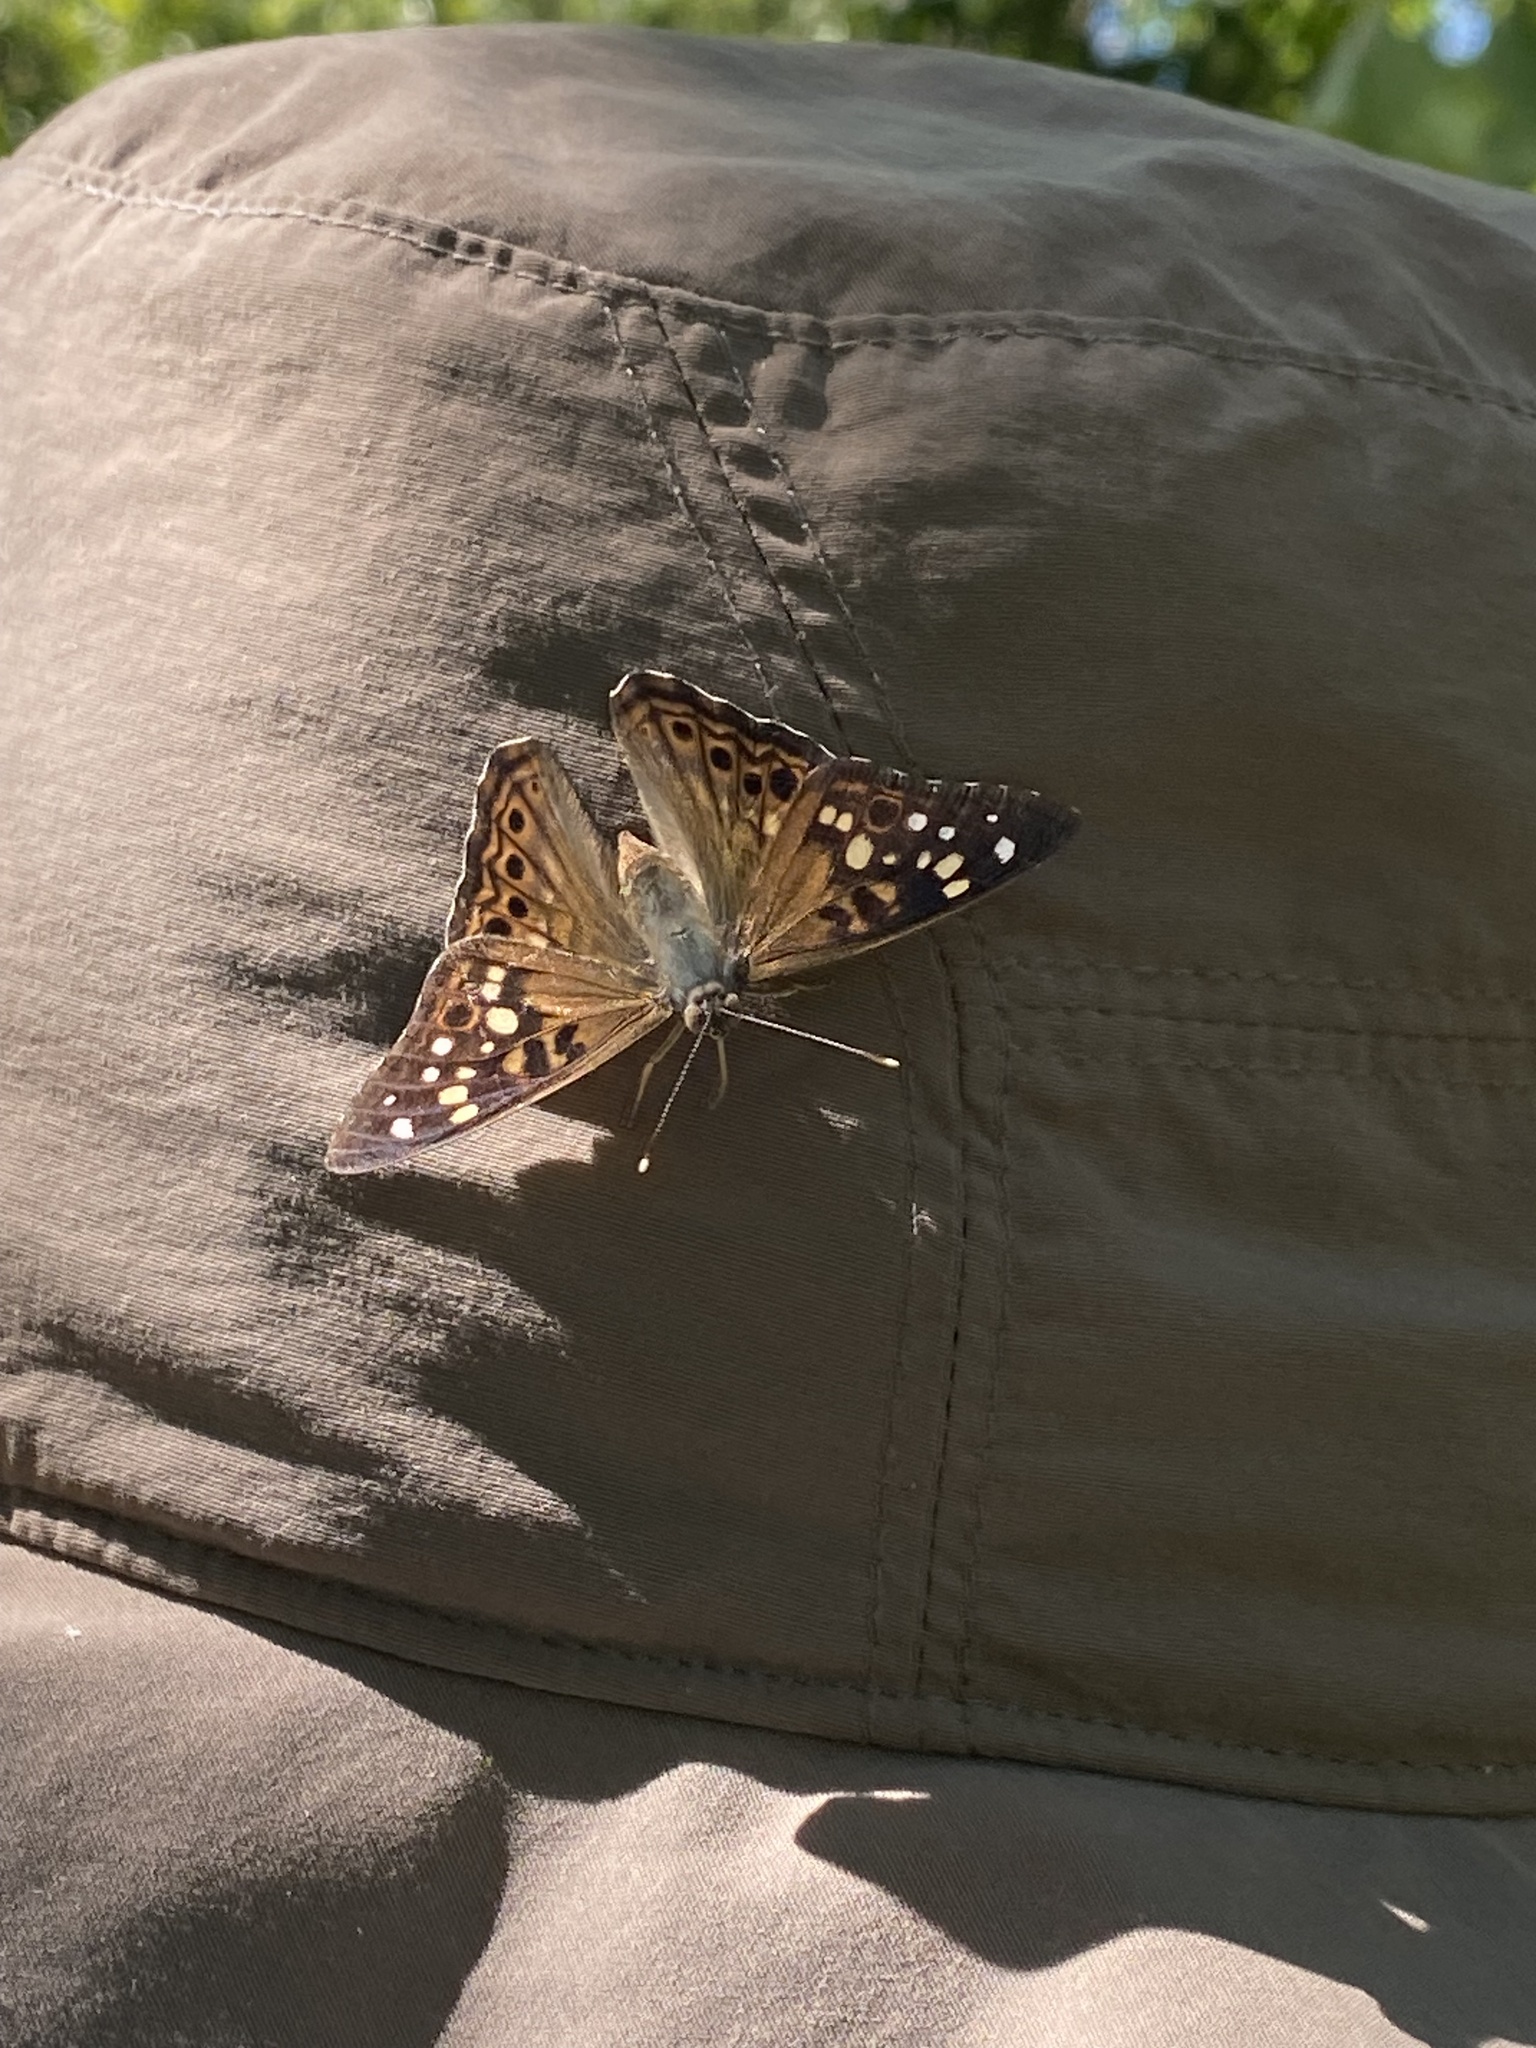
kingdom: Animalia
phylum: Arthropoda
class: Insecta
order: Lepidoptera
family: Nymphalidae
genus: Asterocampa
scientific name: Asterocampa celtis
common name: Hackberry emperor
